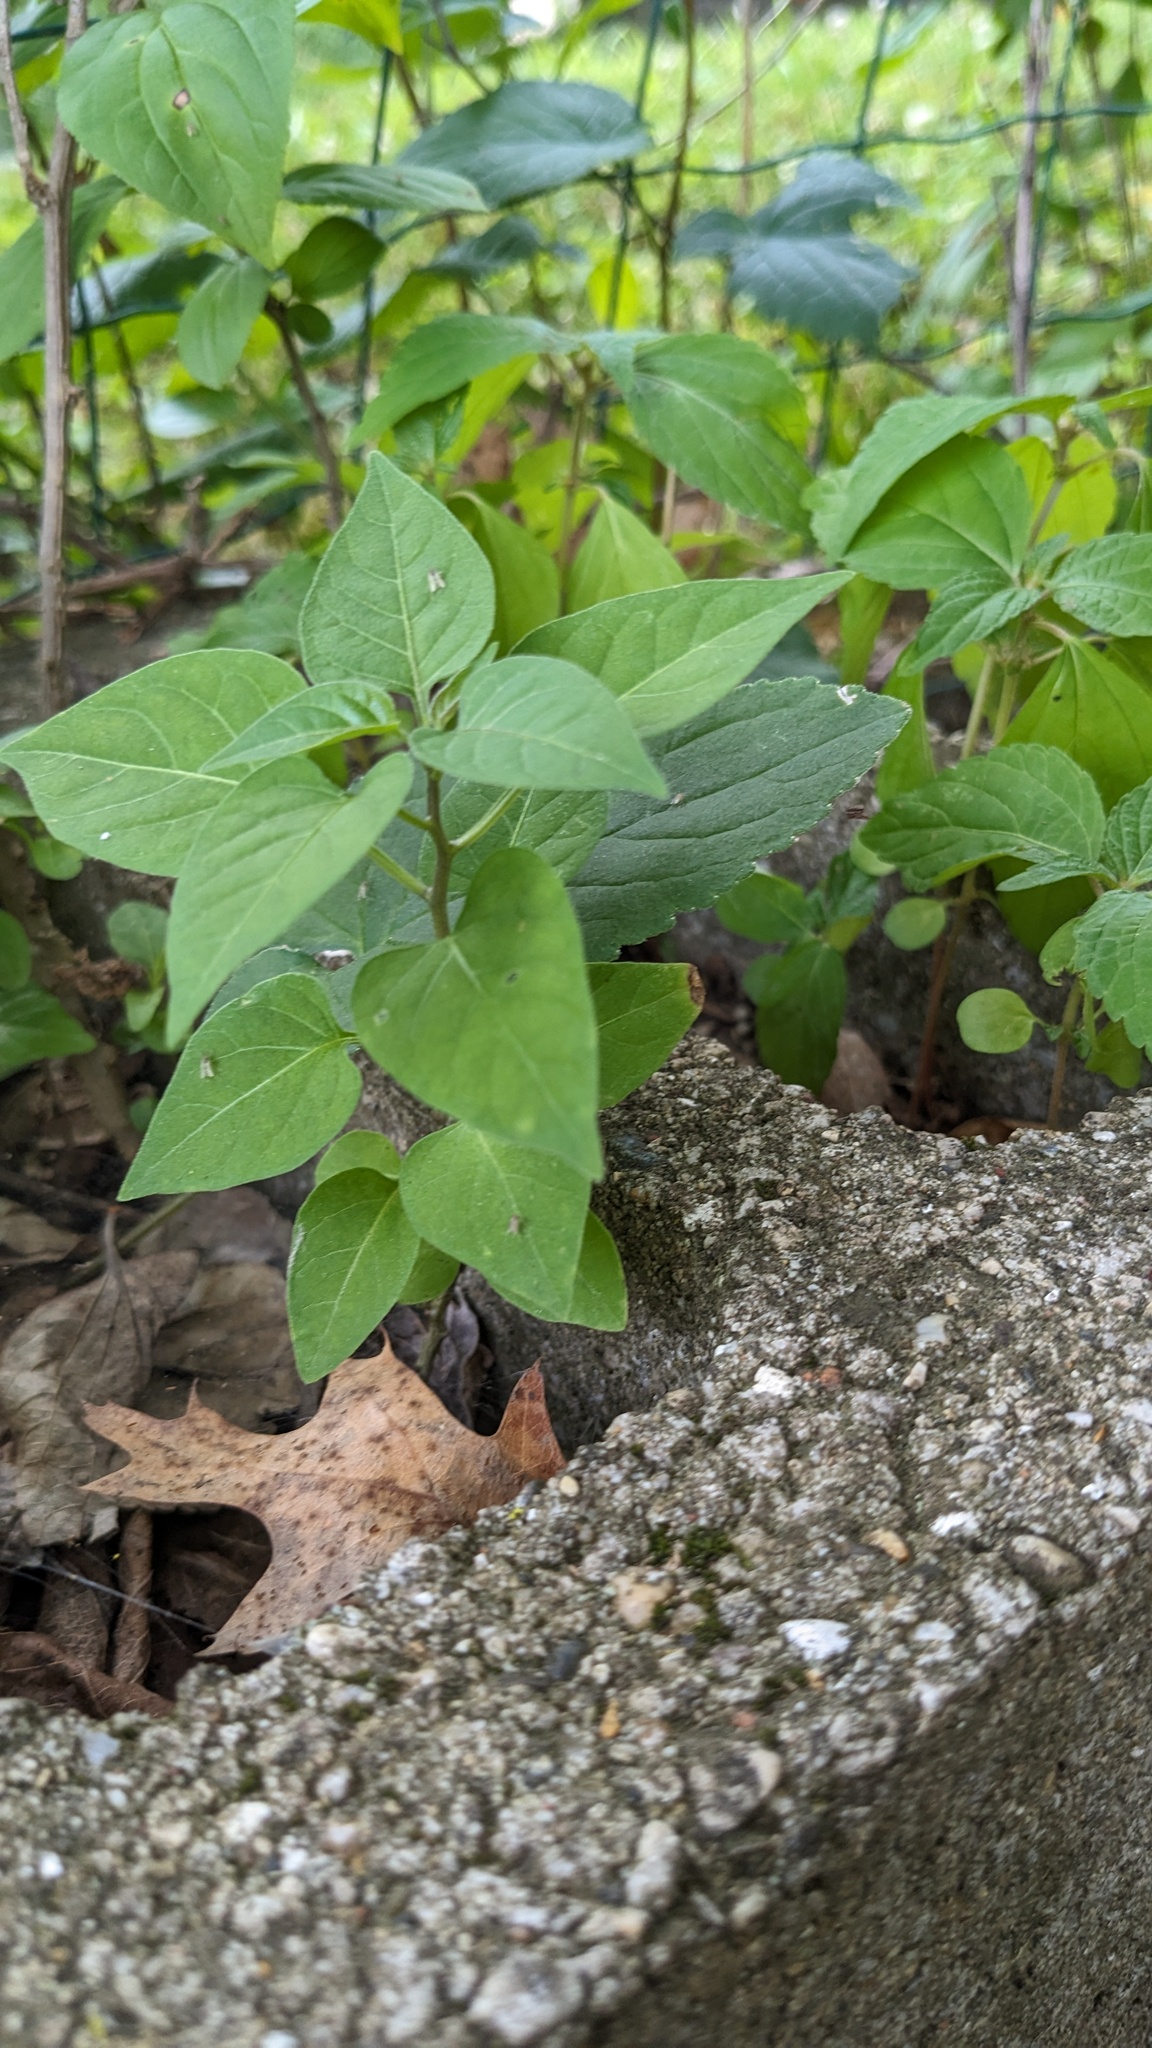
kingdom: Plantae
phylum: Tracheophyta
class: Magnoliopsida
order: Solanales
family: Solanaceae
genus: Solanum
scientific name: Solanum dulcamara
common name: Climbing nightshade
